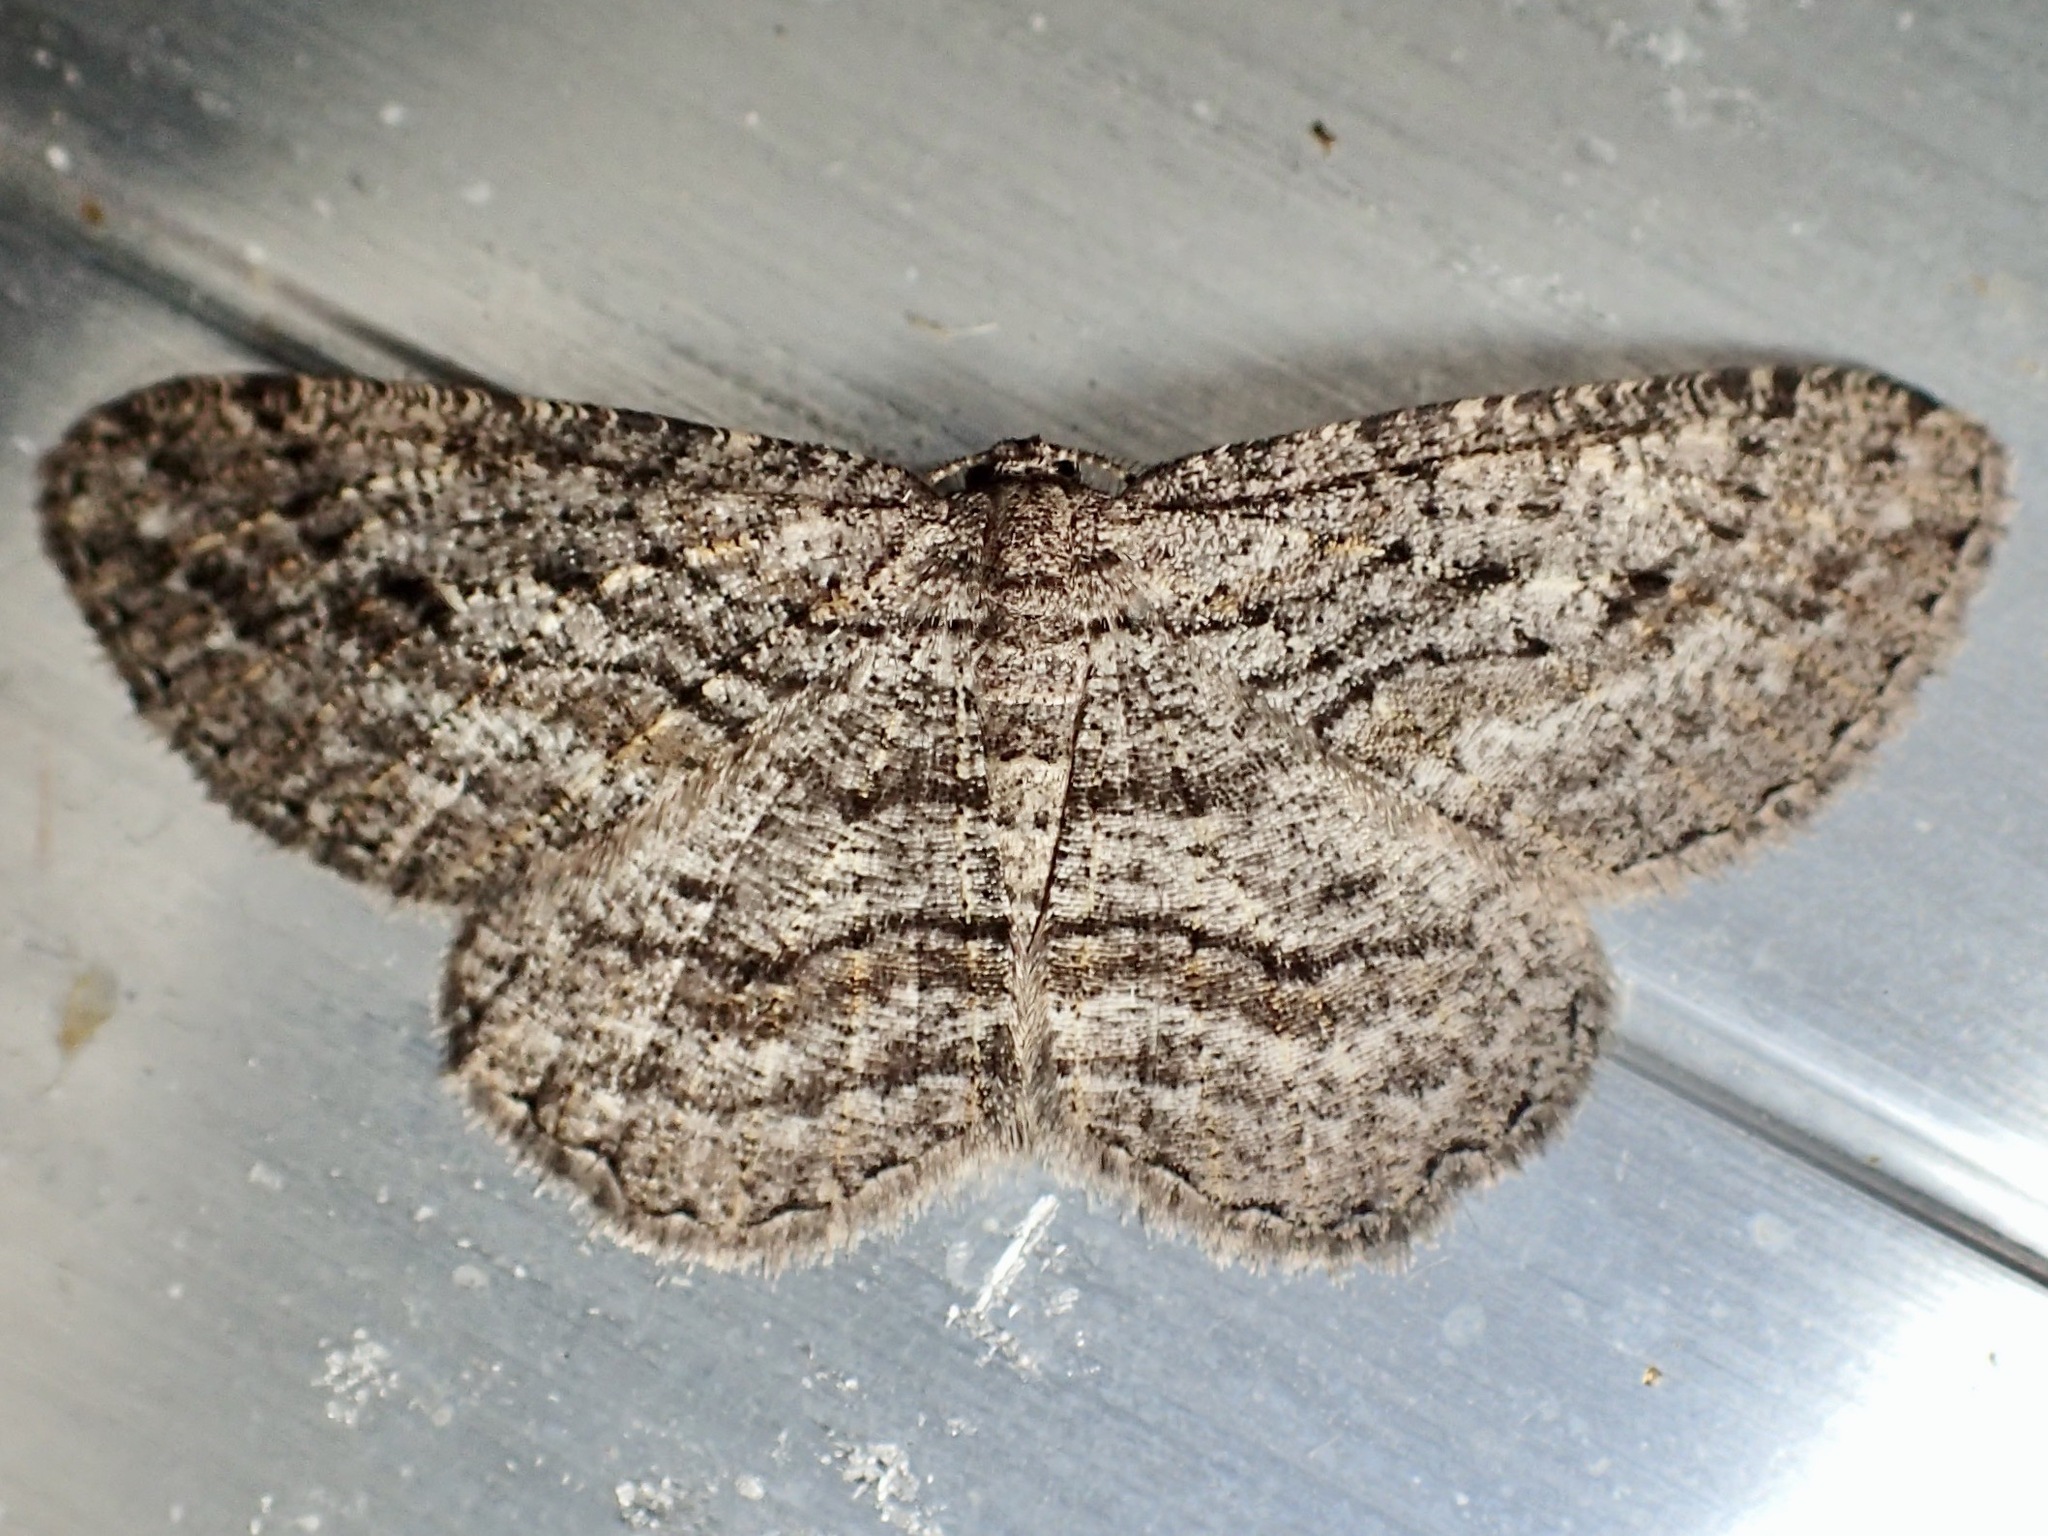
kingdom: Animalia
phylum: Arthropoda
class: Insecta
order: Lepidoptera
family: Geometridae
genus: Zermizinga
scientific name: Zermizinga sinuata
